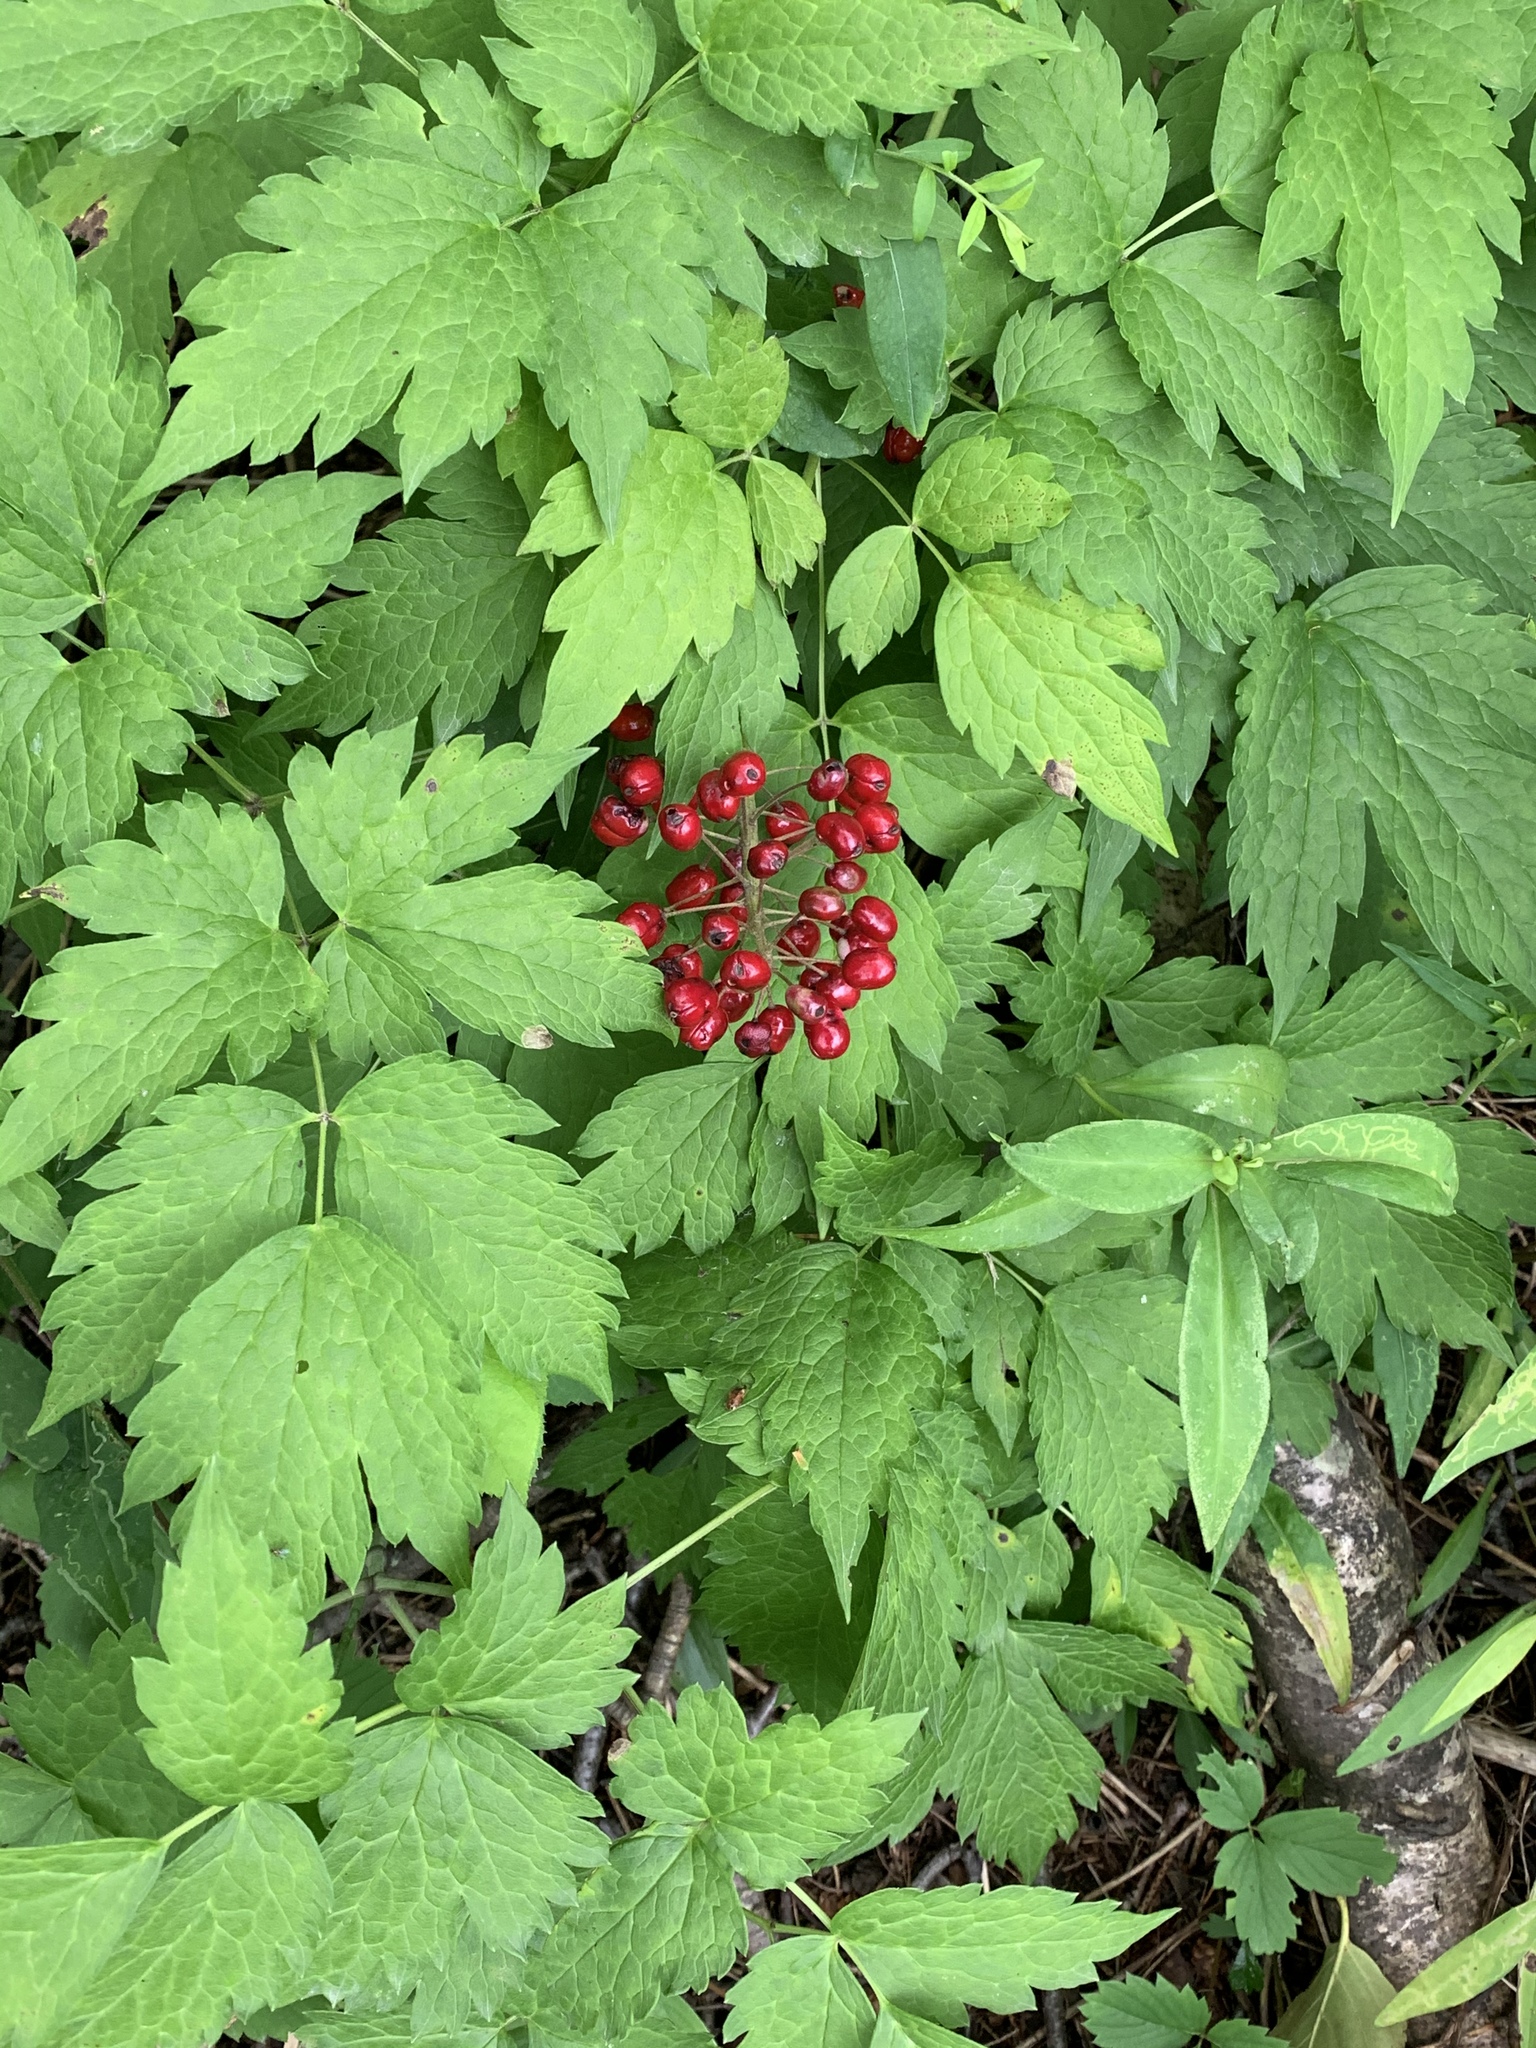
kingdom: Plantae
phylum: Tracheophyta
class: Magnoliopsida
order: Ranunculales
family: Ranunculaceae
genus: Actaea
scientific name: Actaea rubra
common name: Red baneberry
